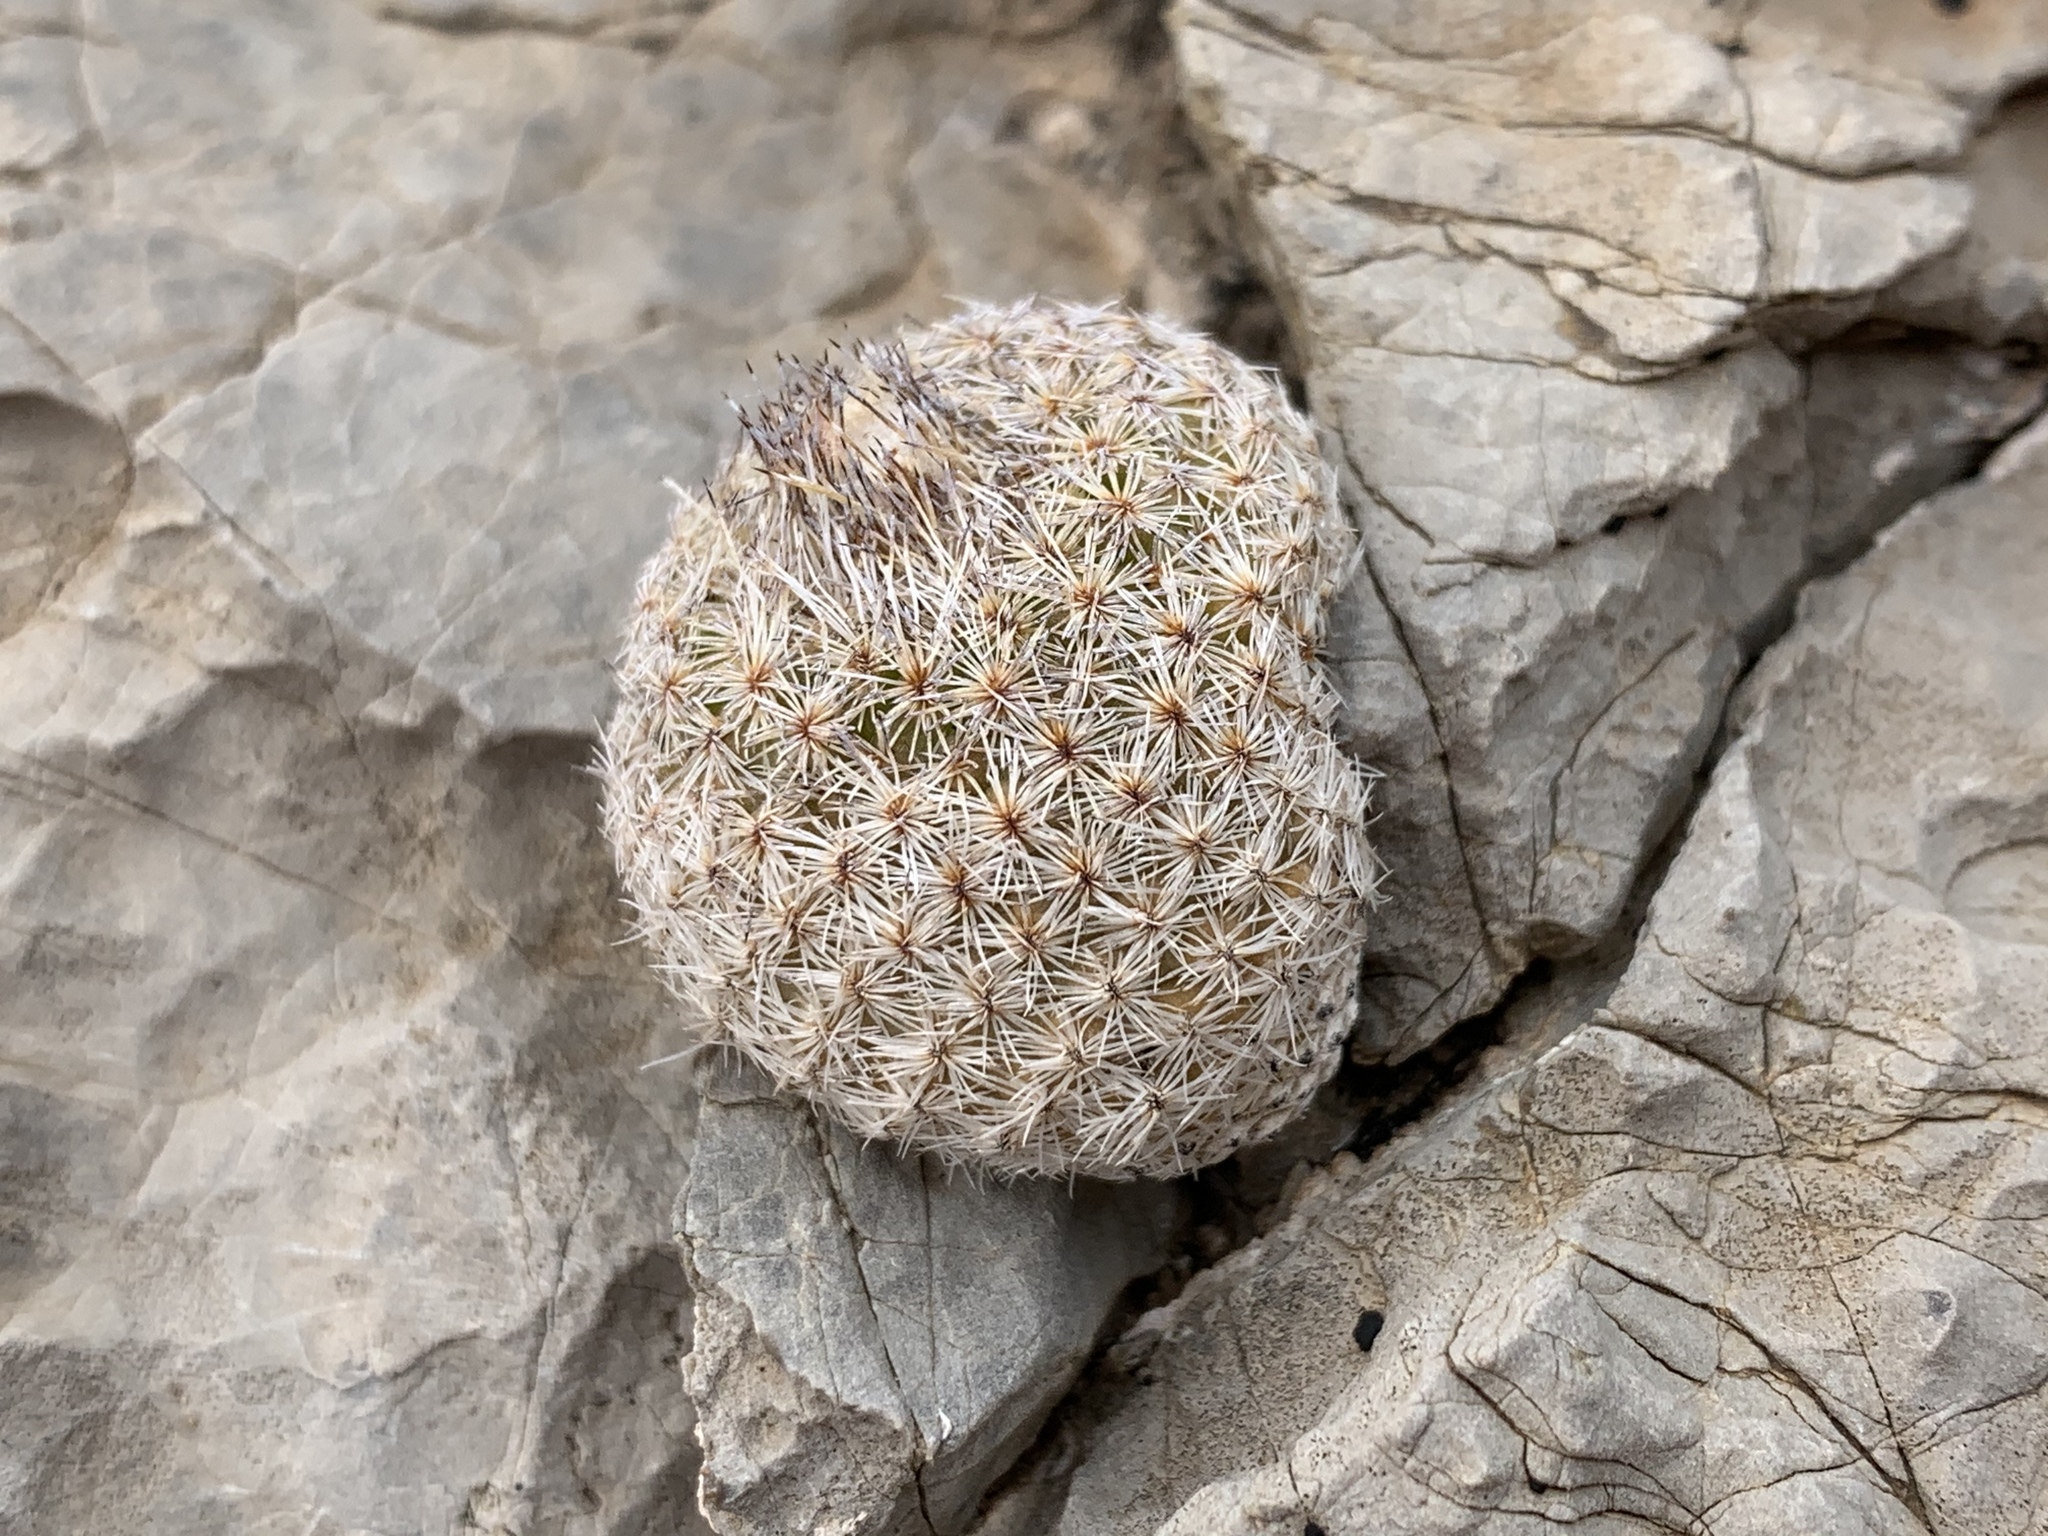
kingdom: Plantae
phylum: Tracheophyta
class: Magnoliopsida
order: Caryophyllales
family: Cactaceae
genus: Epithelantha
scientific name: Epithelantha micromeris
